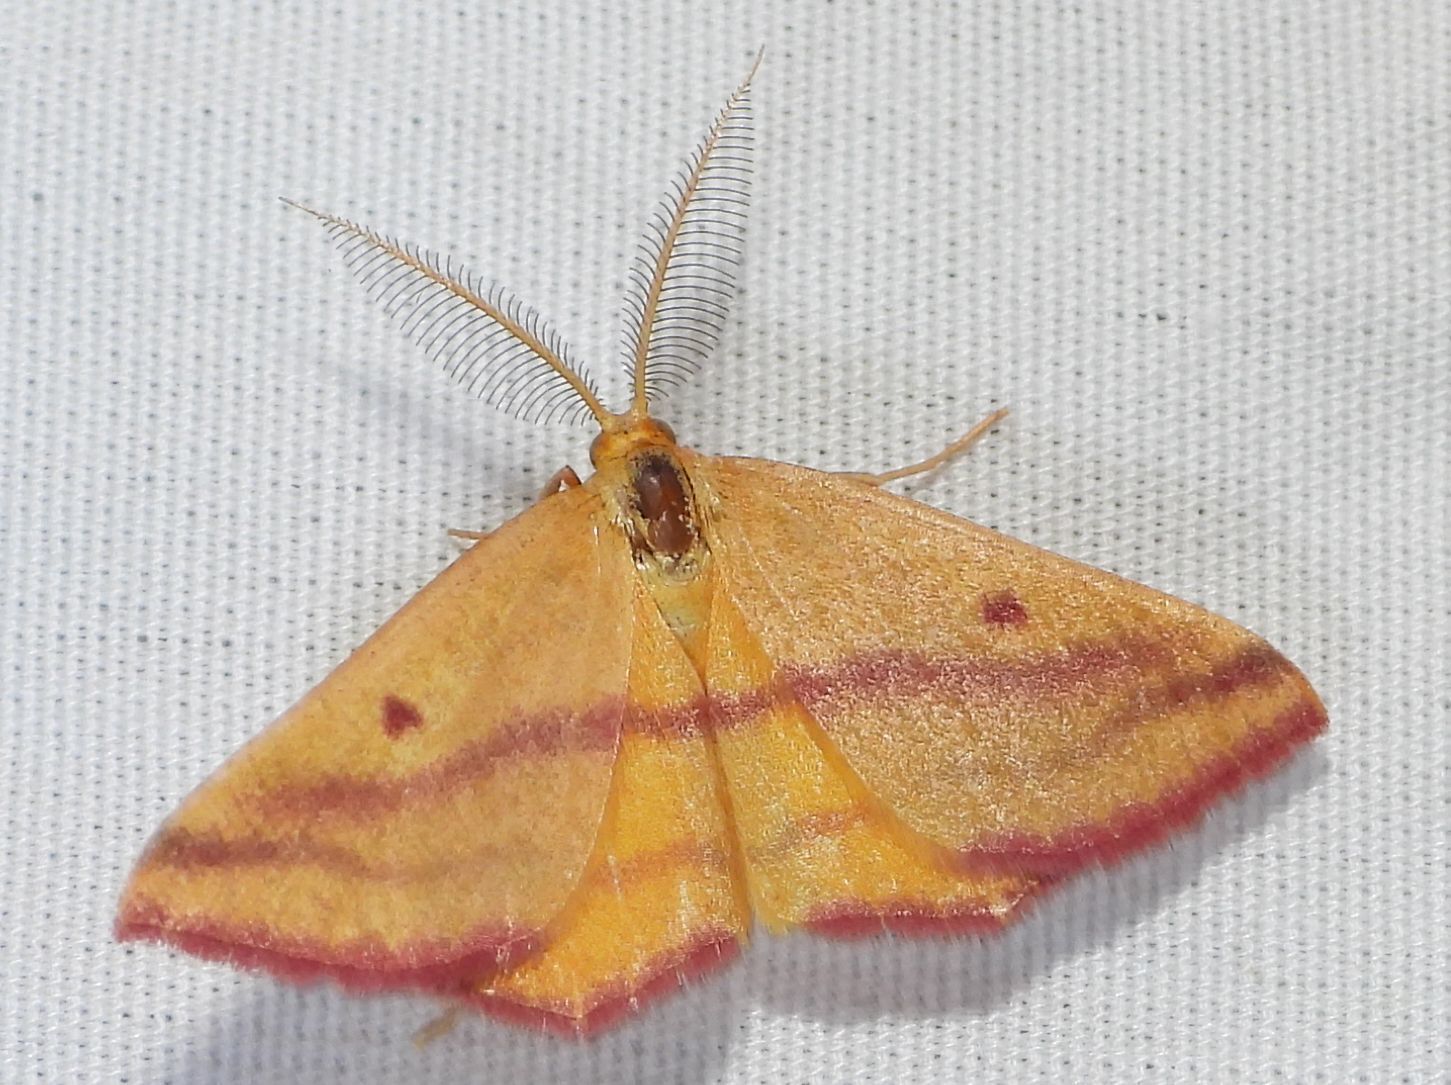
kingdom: Animalia
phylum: Arthropoda
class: Insecta
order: Lepidoptera
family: Geometridae
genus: Haematopis
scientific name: Haematopis grataria
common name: Chickweed geometer
